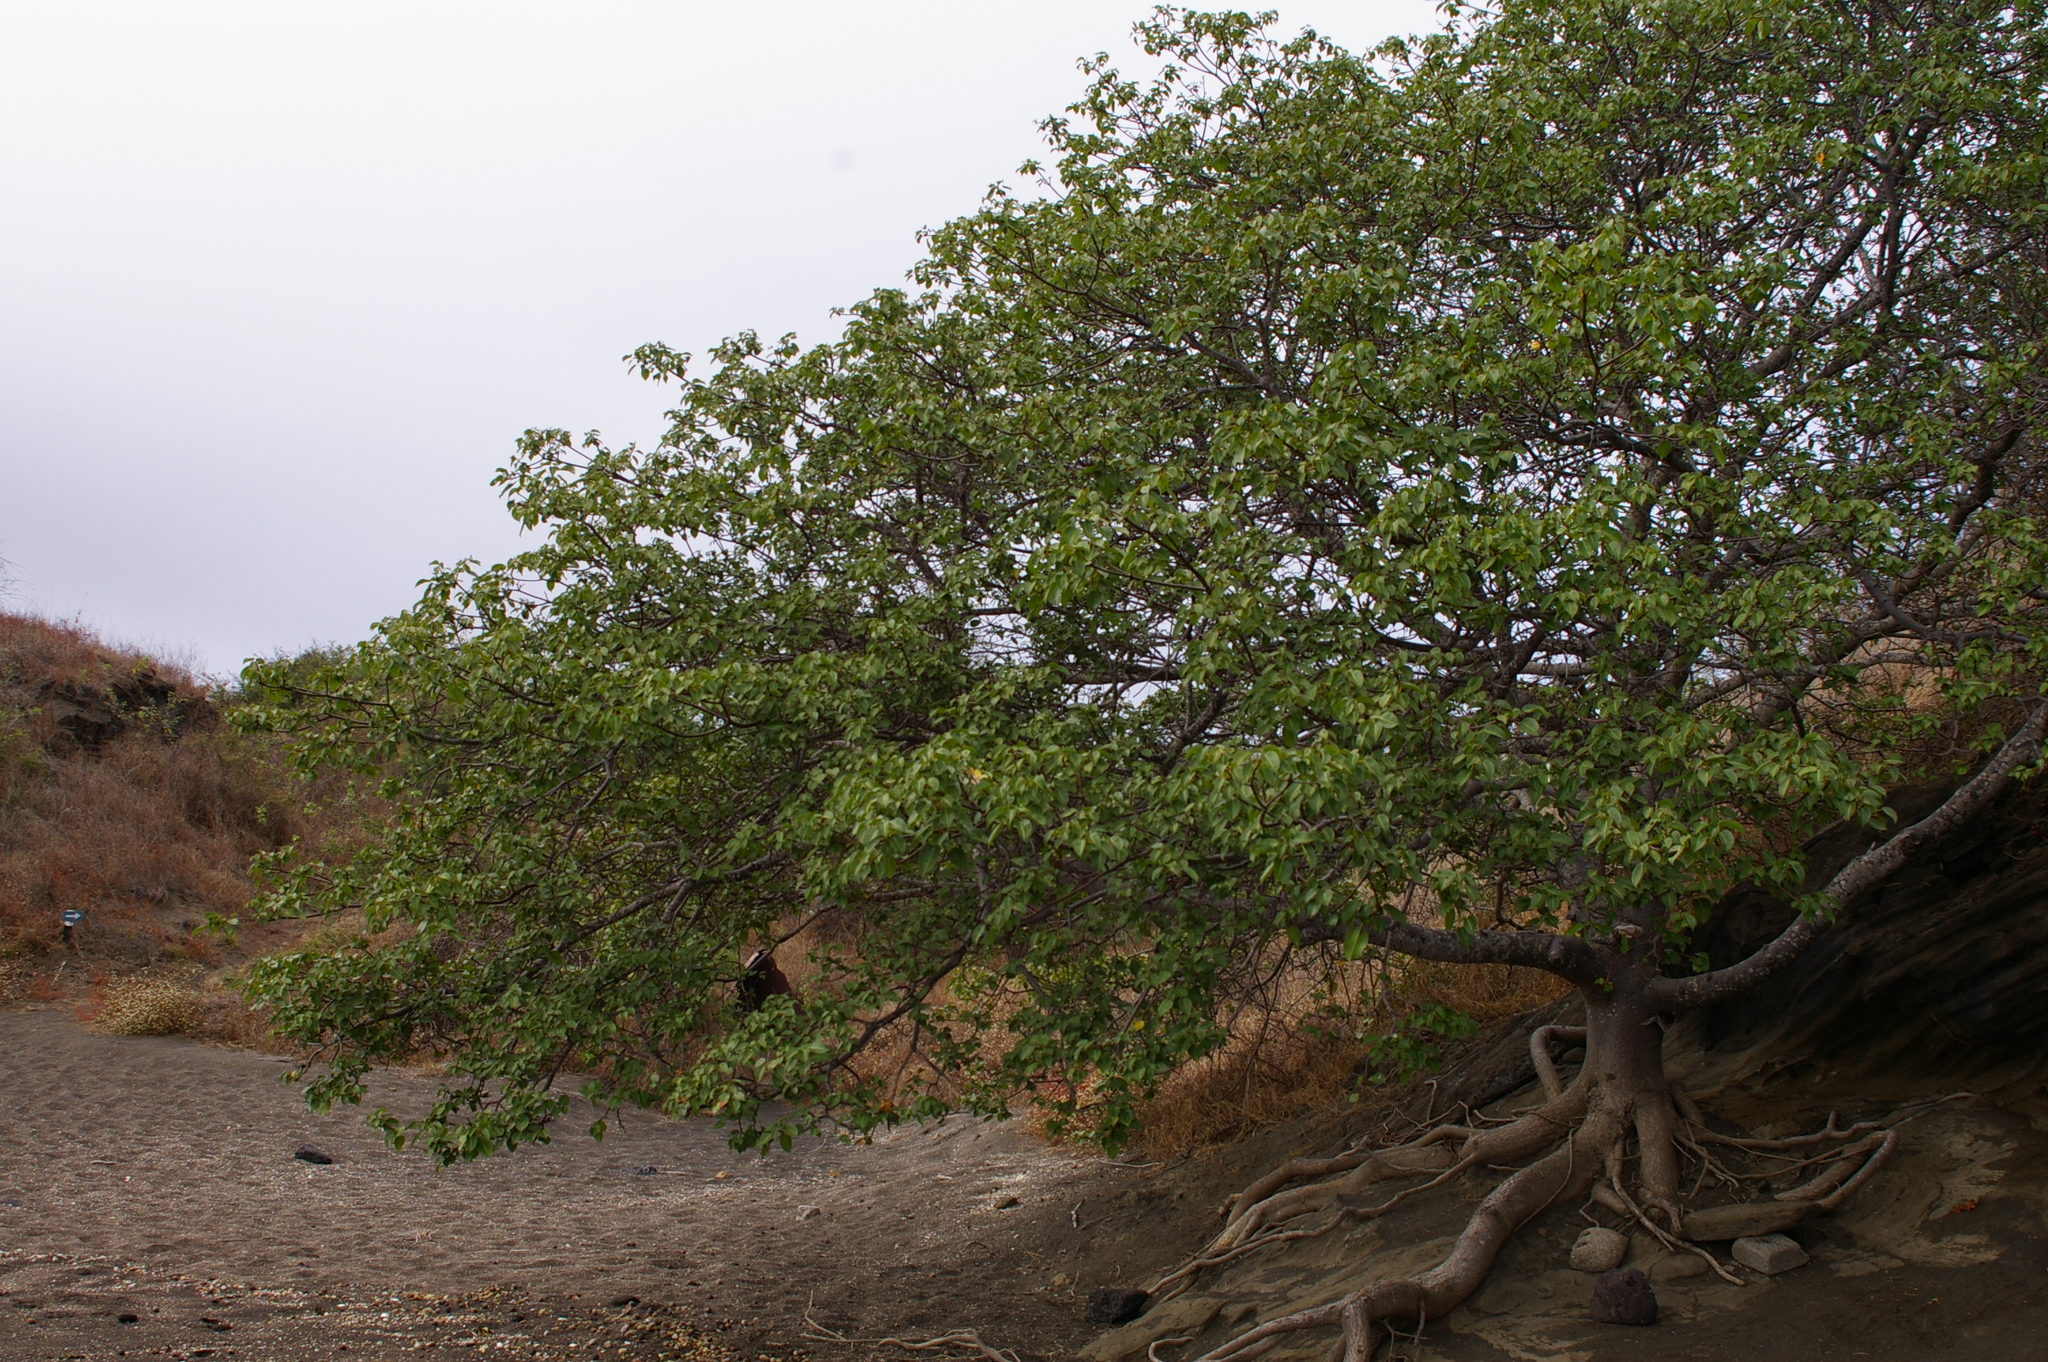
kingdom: Plantae
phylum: Tracheophyta
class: Magnoliopsida
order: Malpighiales
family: Euphorbiaceae
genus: Hippomane
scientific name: Hippomane mancinella
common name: Manchineel
